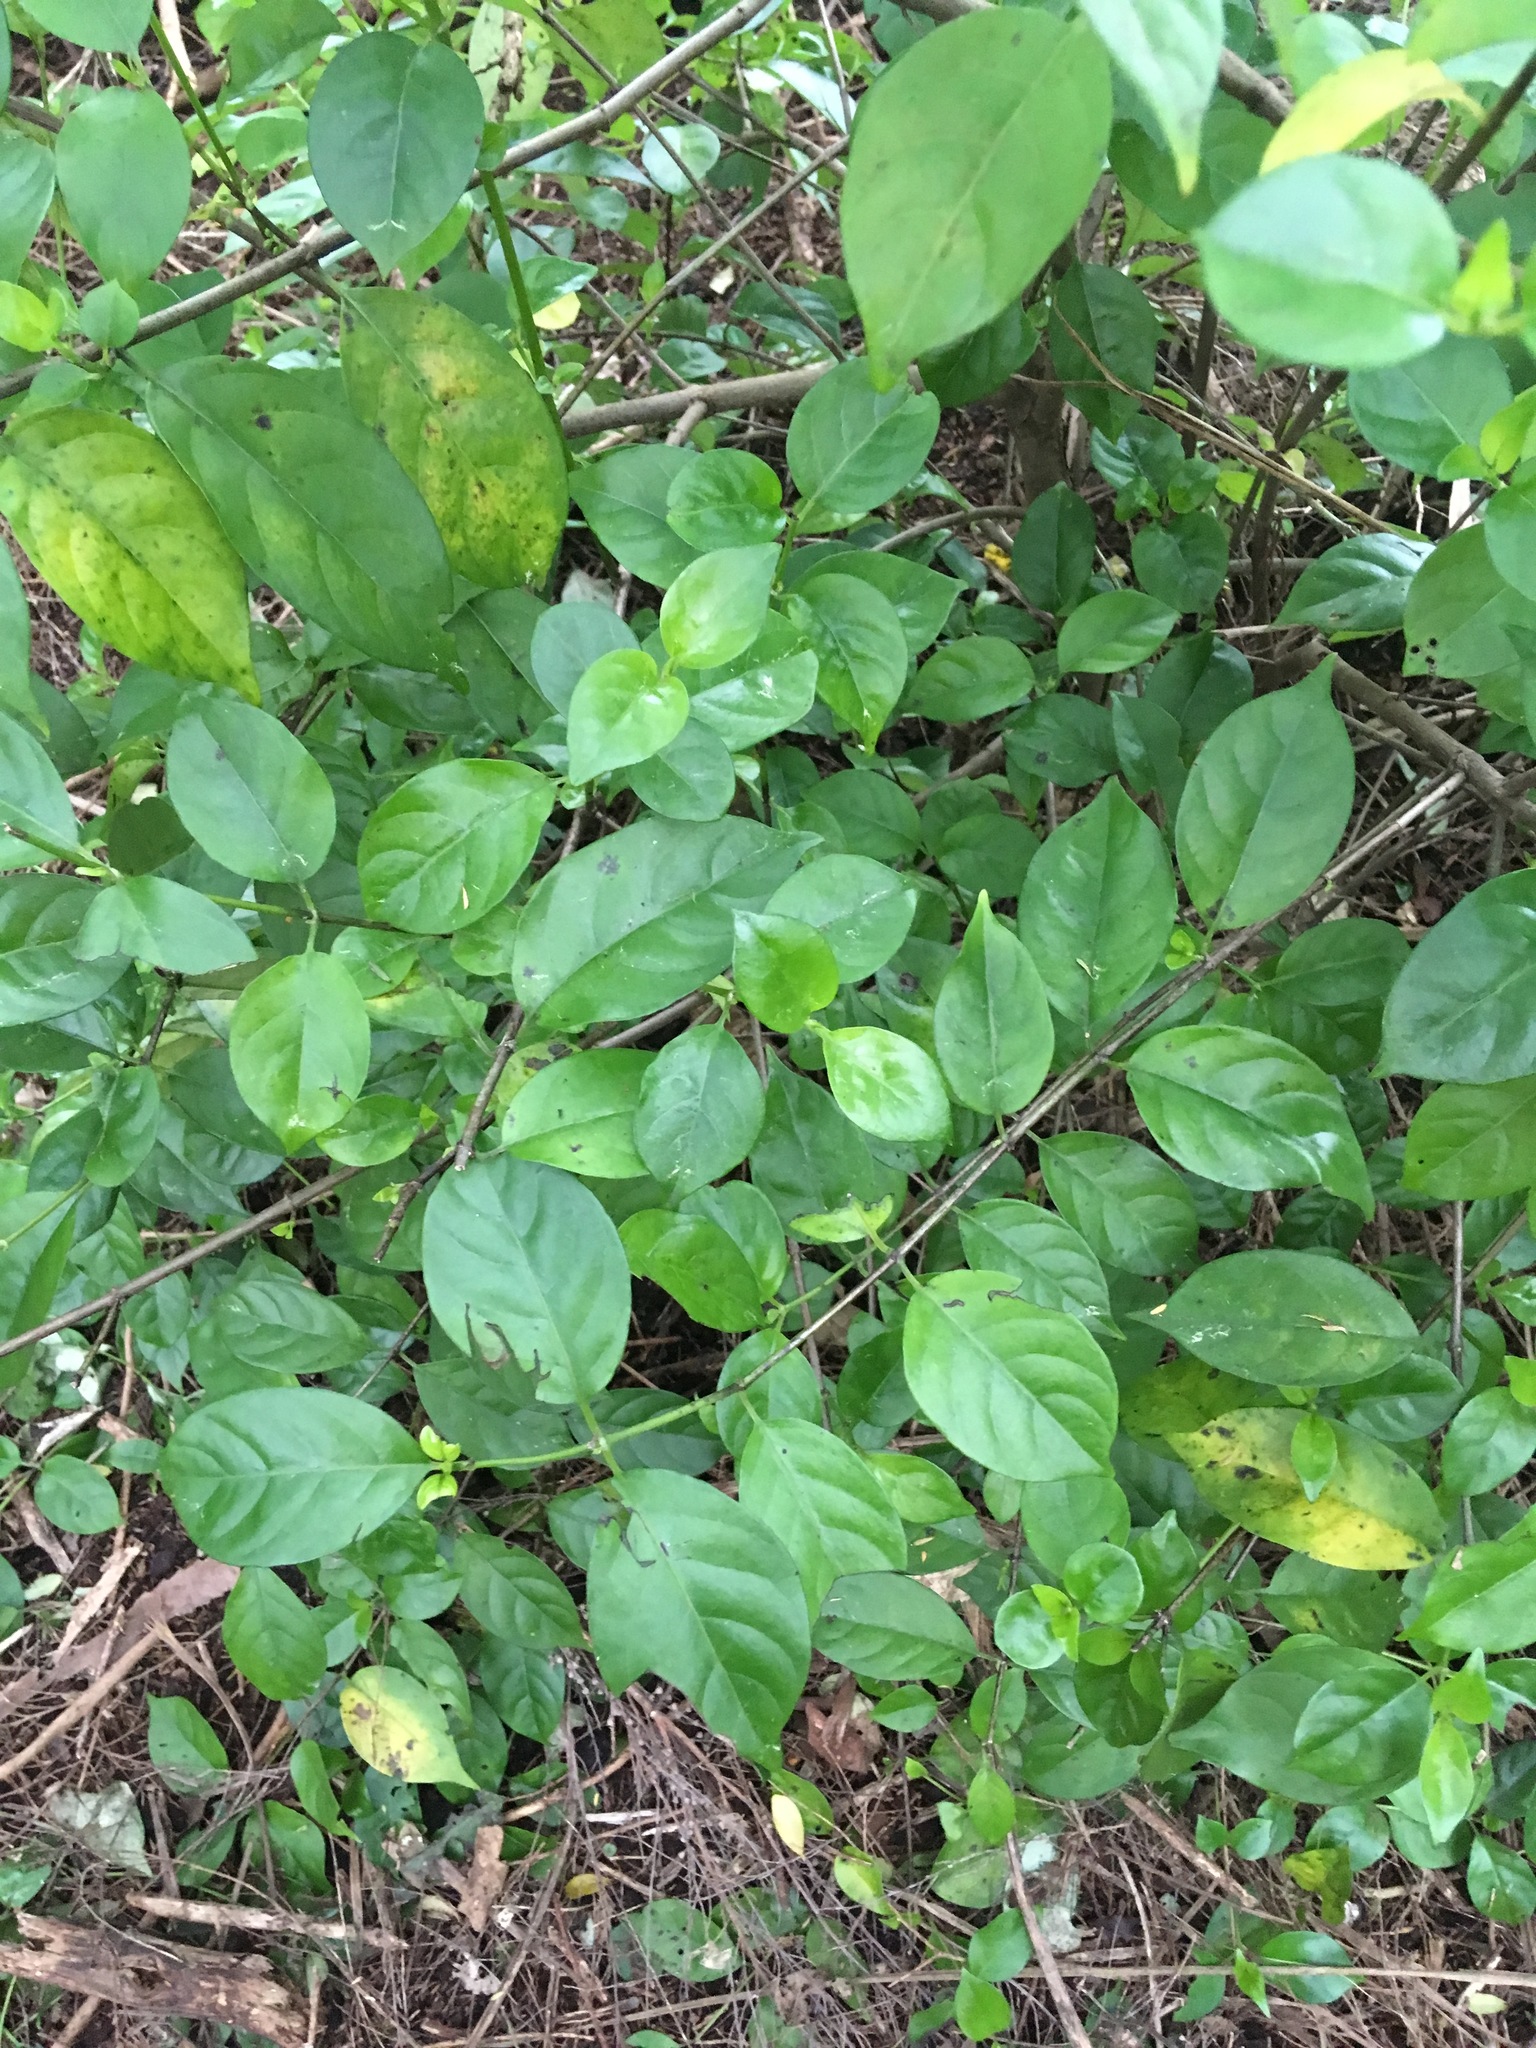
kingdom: Plantae
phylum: Tracheophyta
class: Magnoliopsida
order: Gentianales
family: Loganiaceae
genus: Geniostoma
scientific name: Geniostoma ligustrifolium
